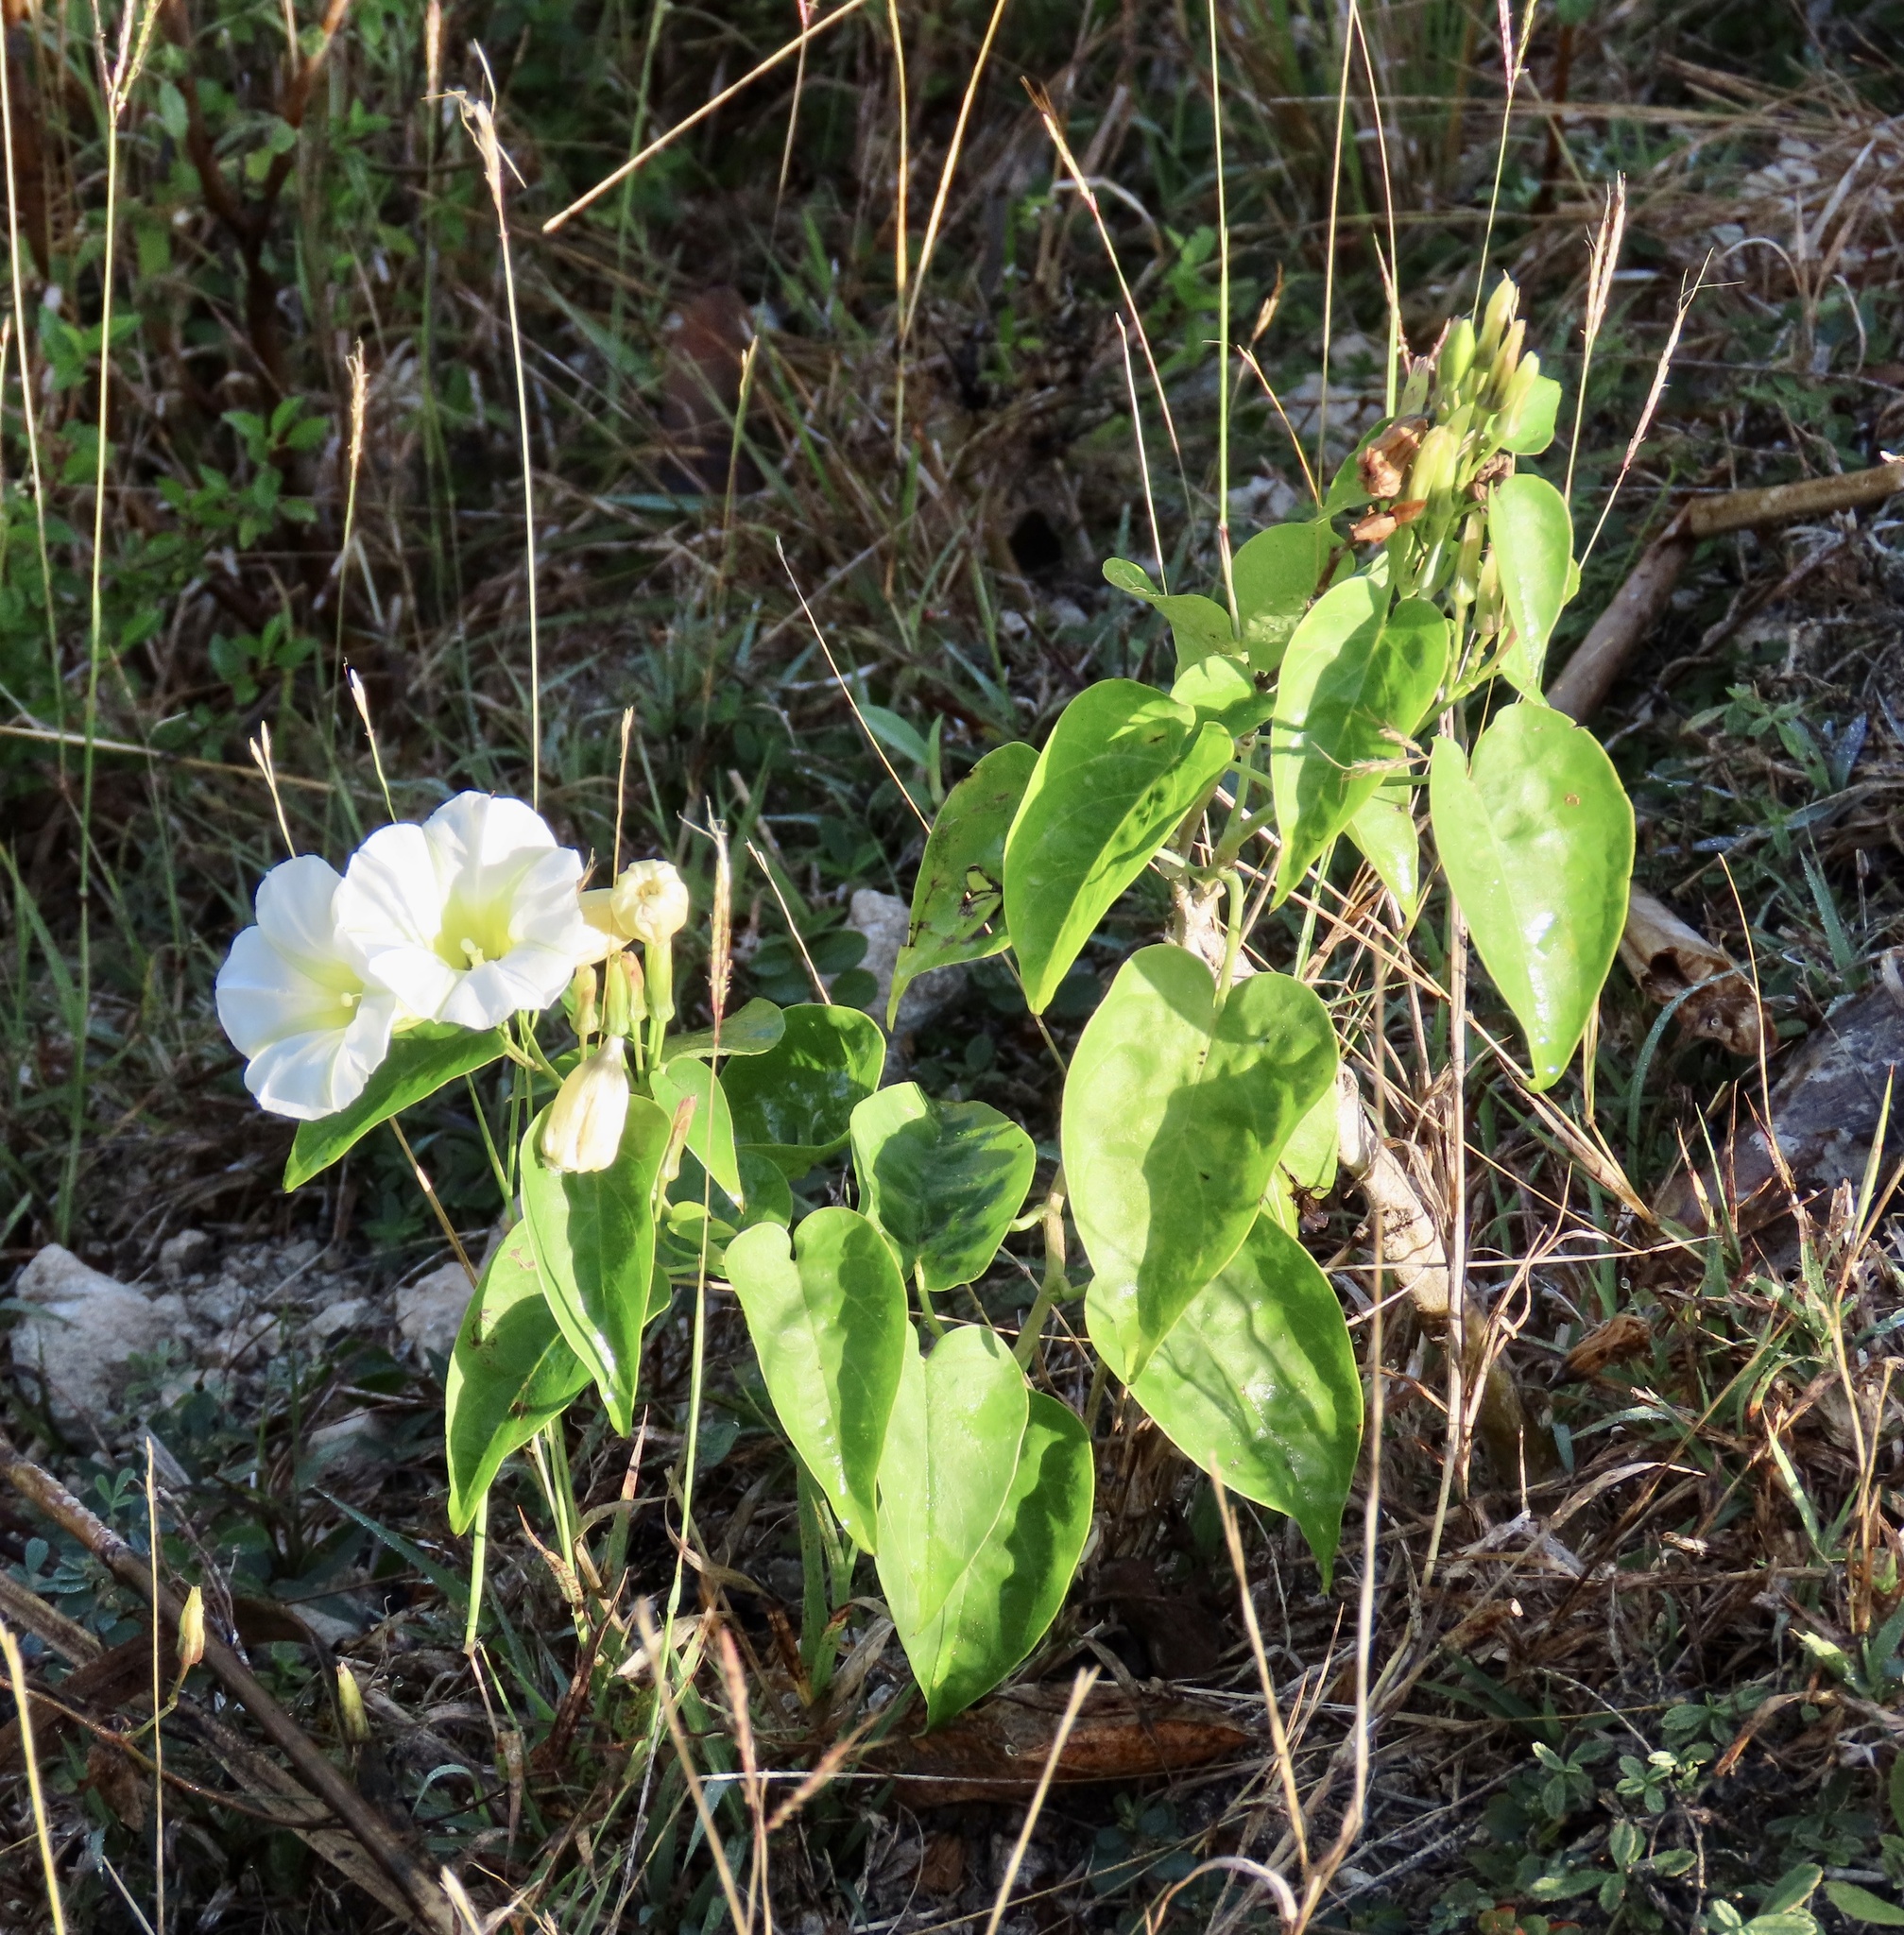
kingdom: Plantae
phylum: Tracheophyta
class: Magnoliopsida
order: Solanales
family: Convolvulaceae
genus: Ipomoea
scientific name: Ipomoea corymbosa
